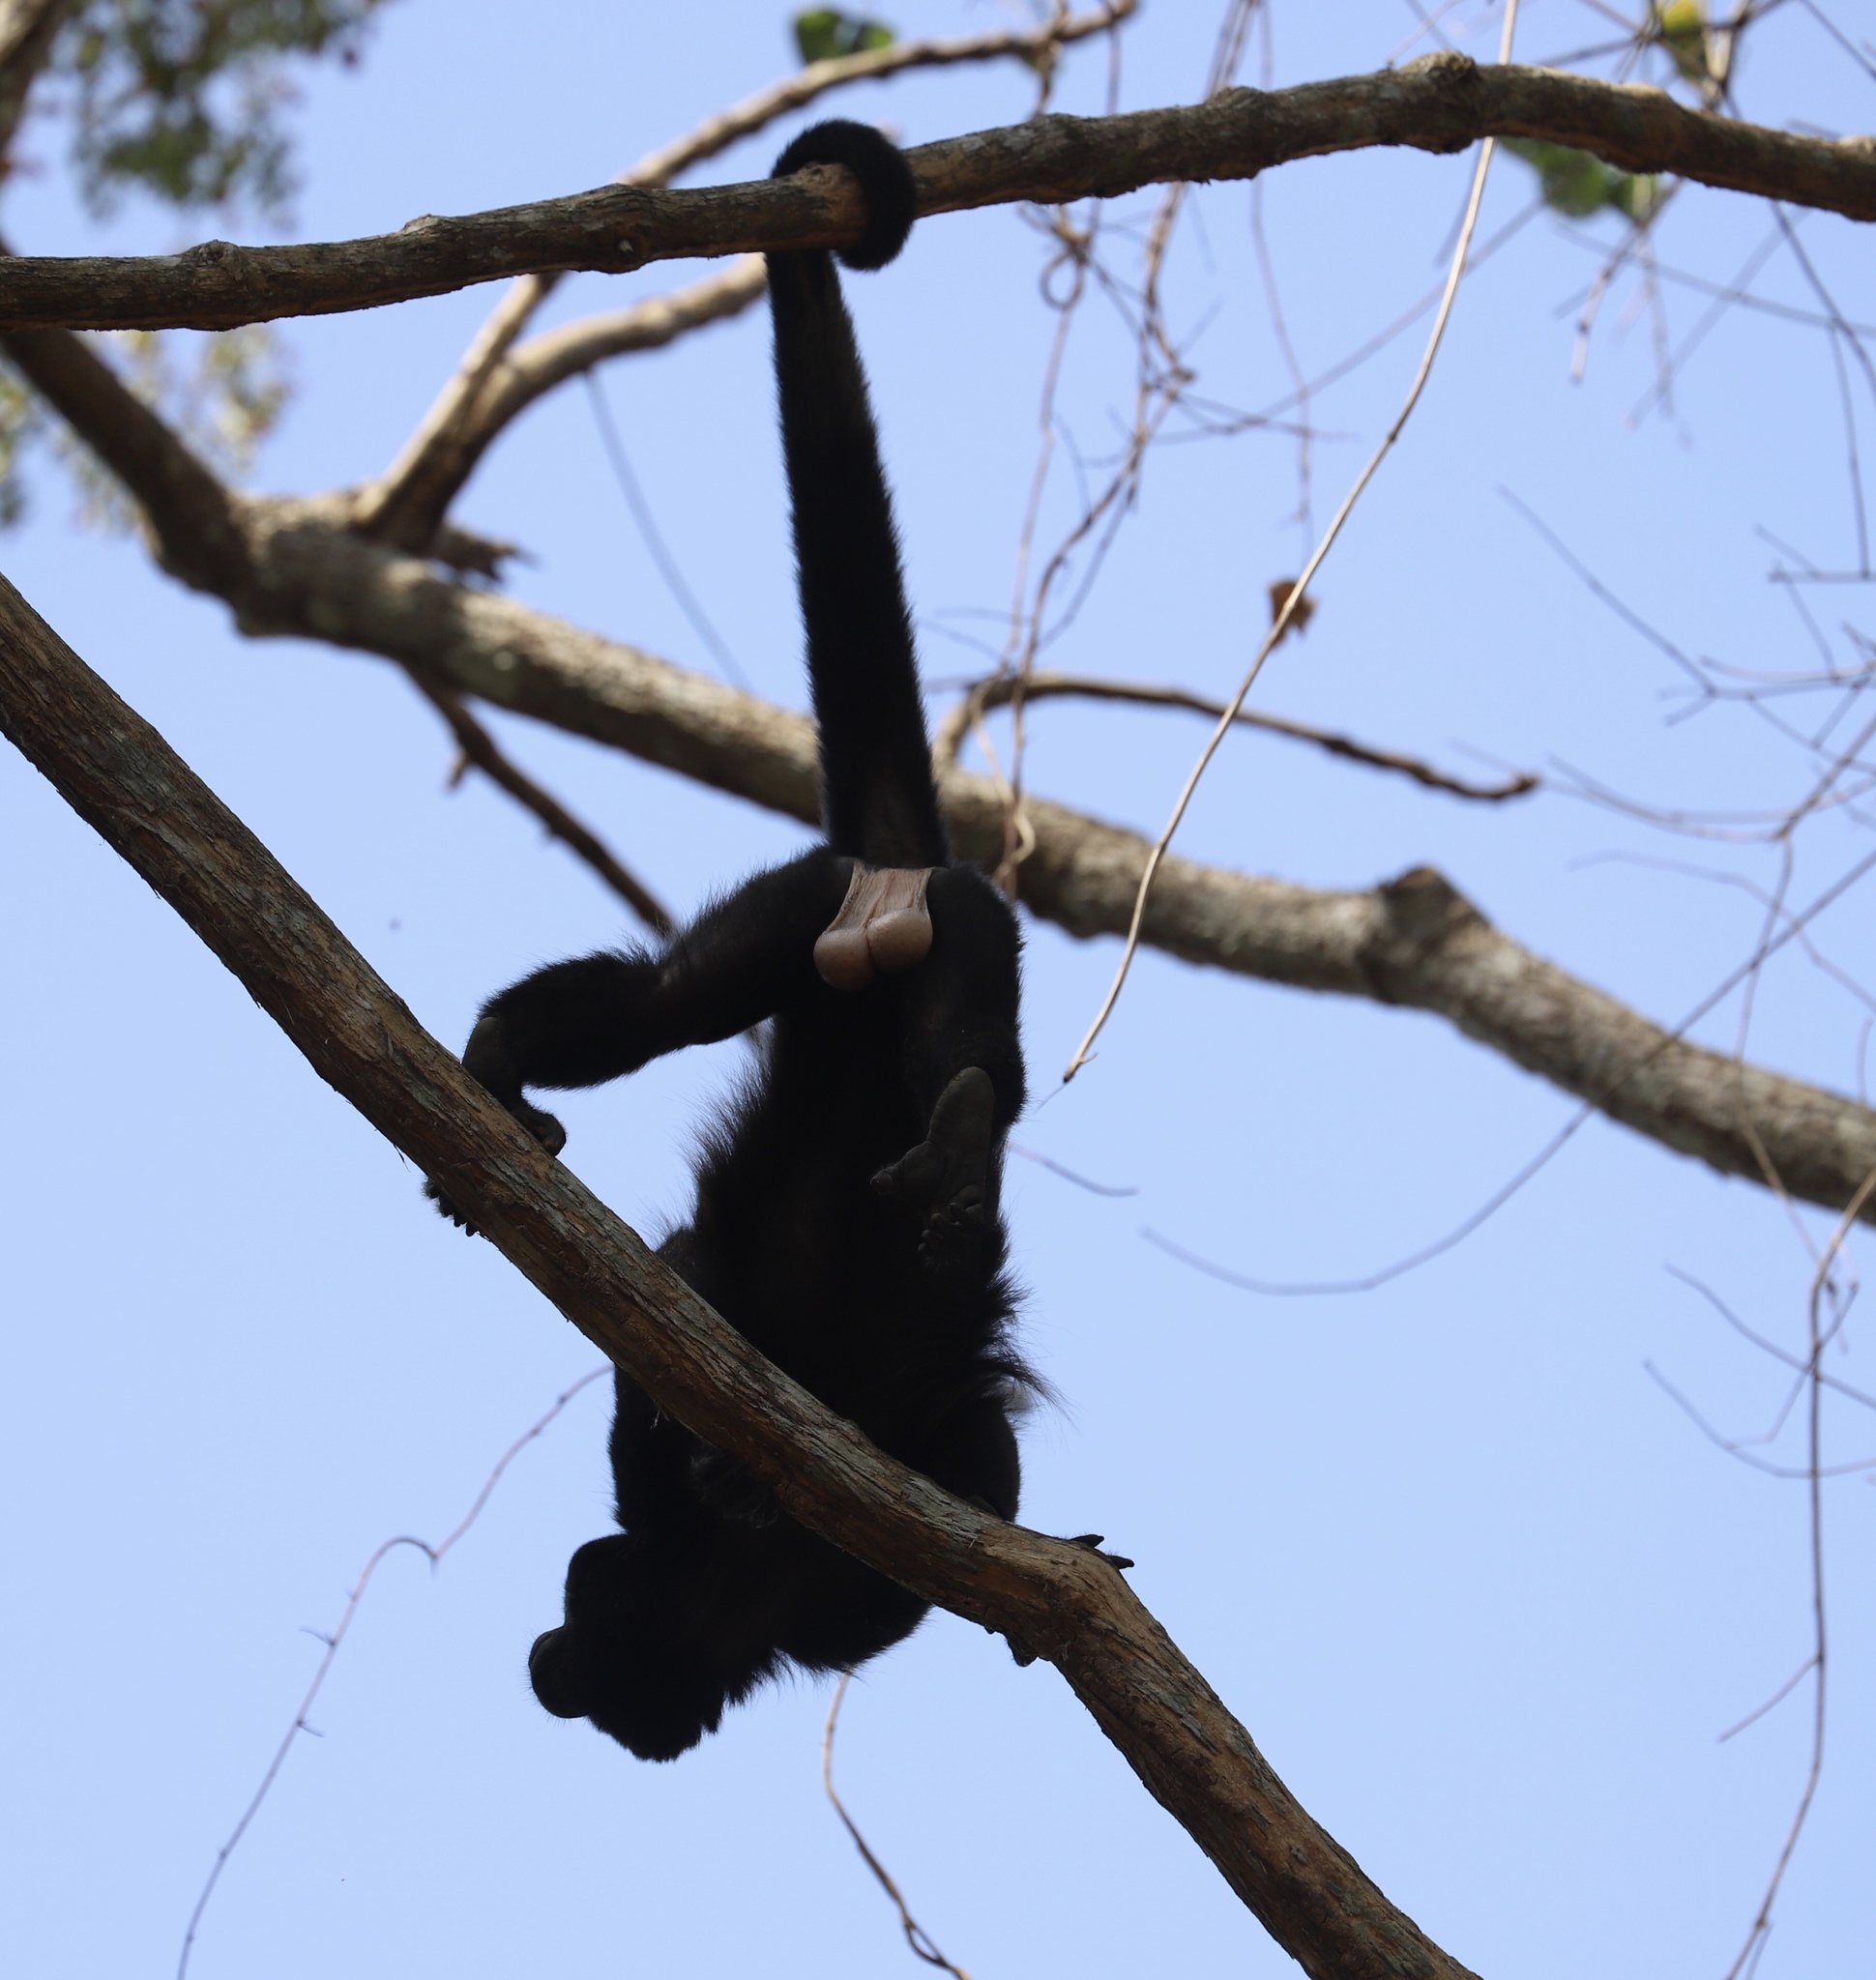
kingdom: Animalia
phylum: Chordata
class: Mammalia
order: Primates
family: Atelidae
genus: Alouatta
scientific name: Alouatta palliata
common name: Mantled howler
